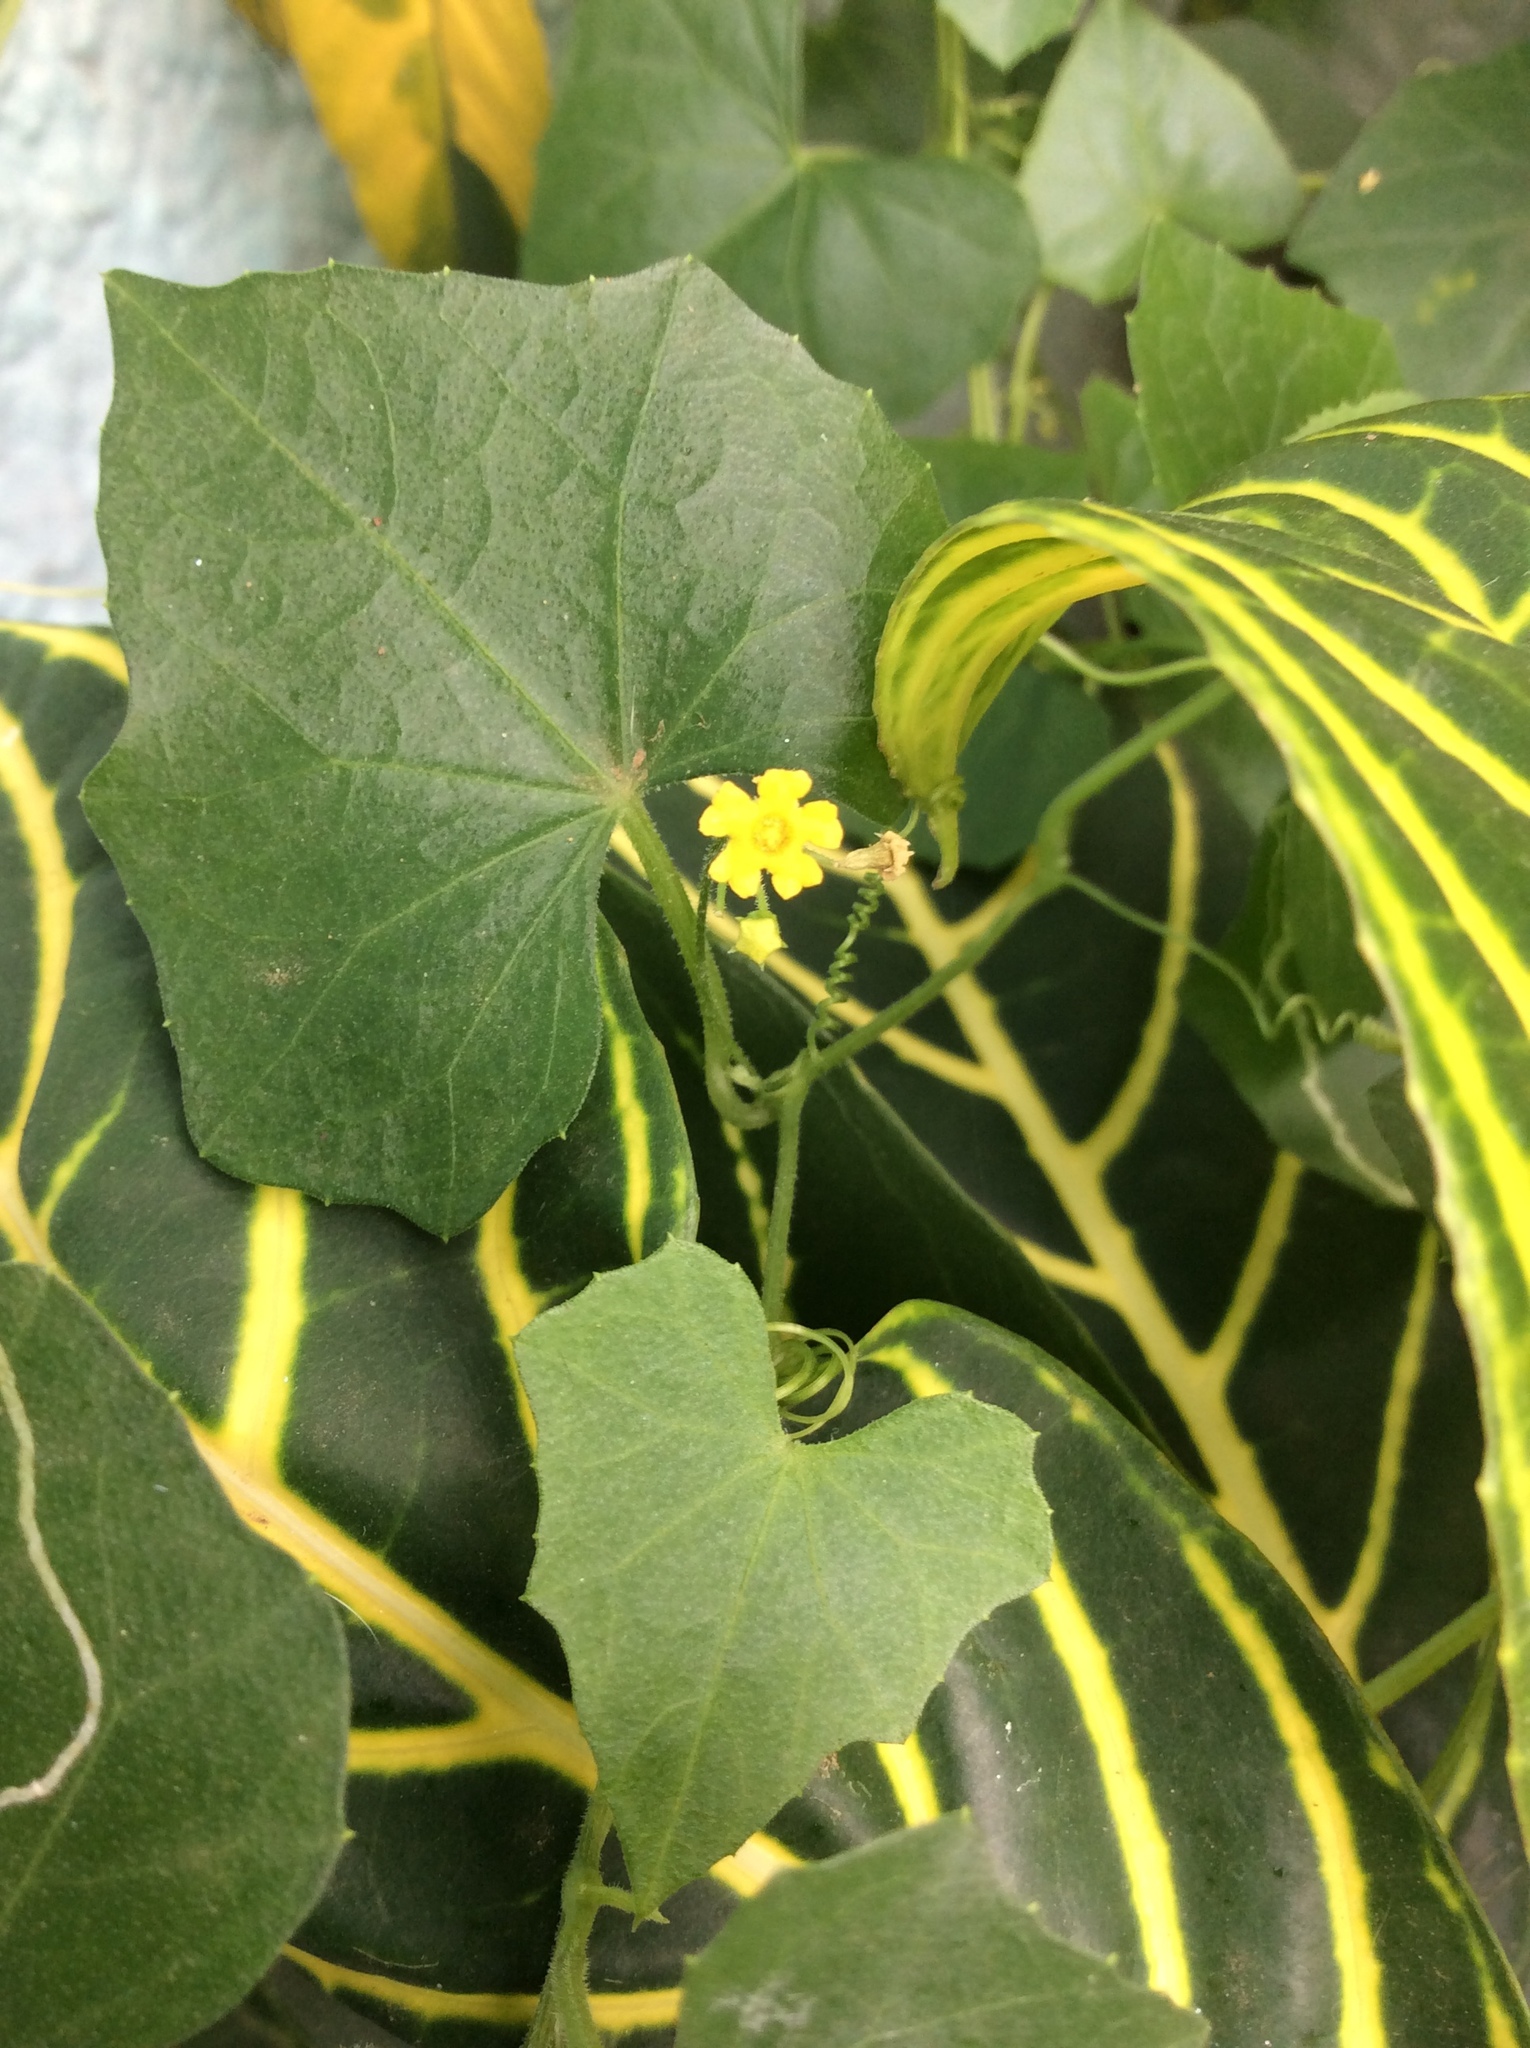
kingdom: Plantae
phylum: Tracheophyta
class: Magnoliopsida
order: Cucurbitales
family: Cucurbitaceae
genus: Melothria
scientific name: Melothria pendula
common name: Creeping-cucumber
